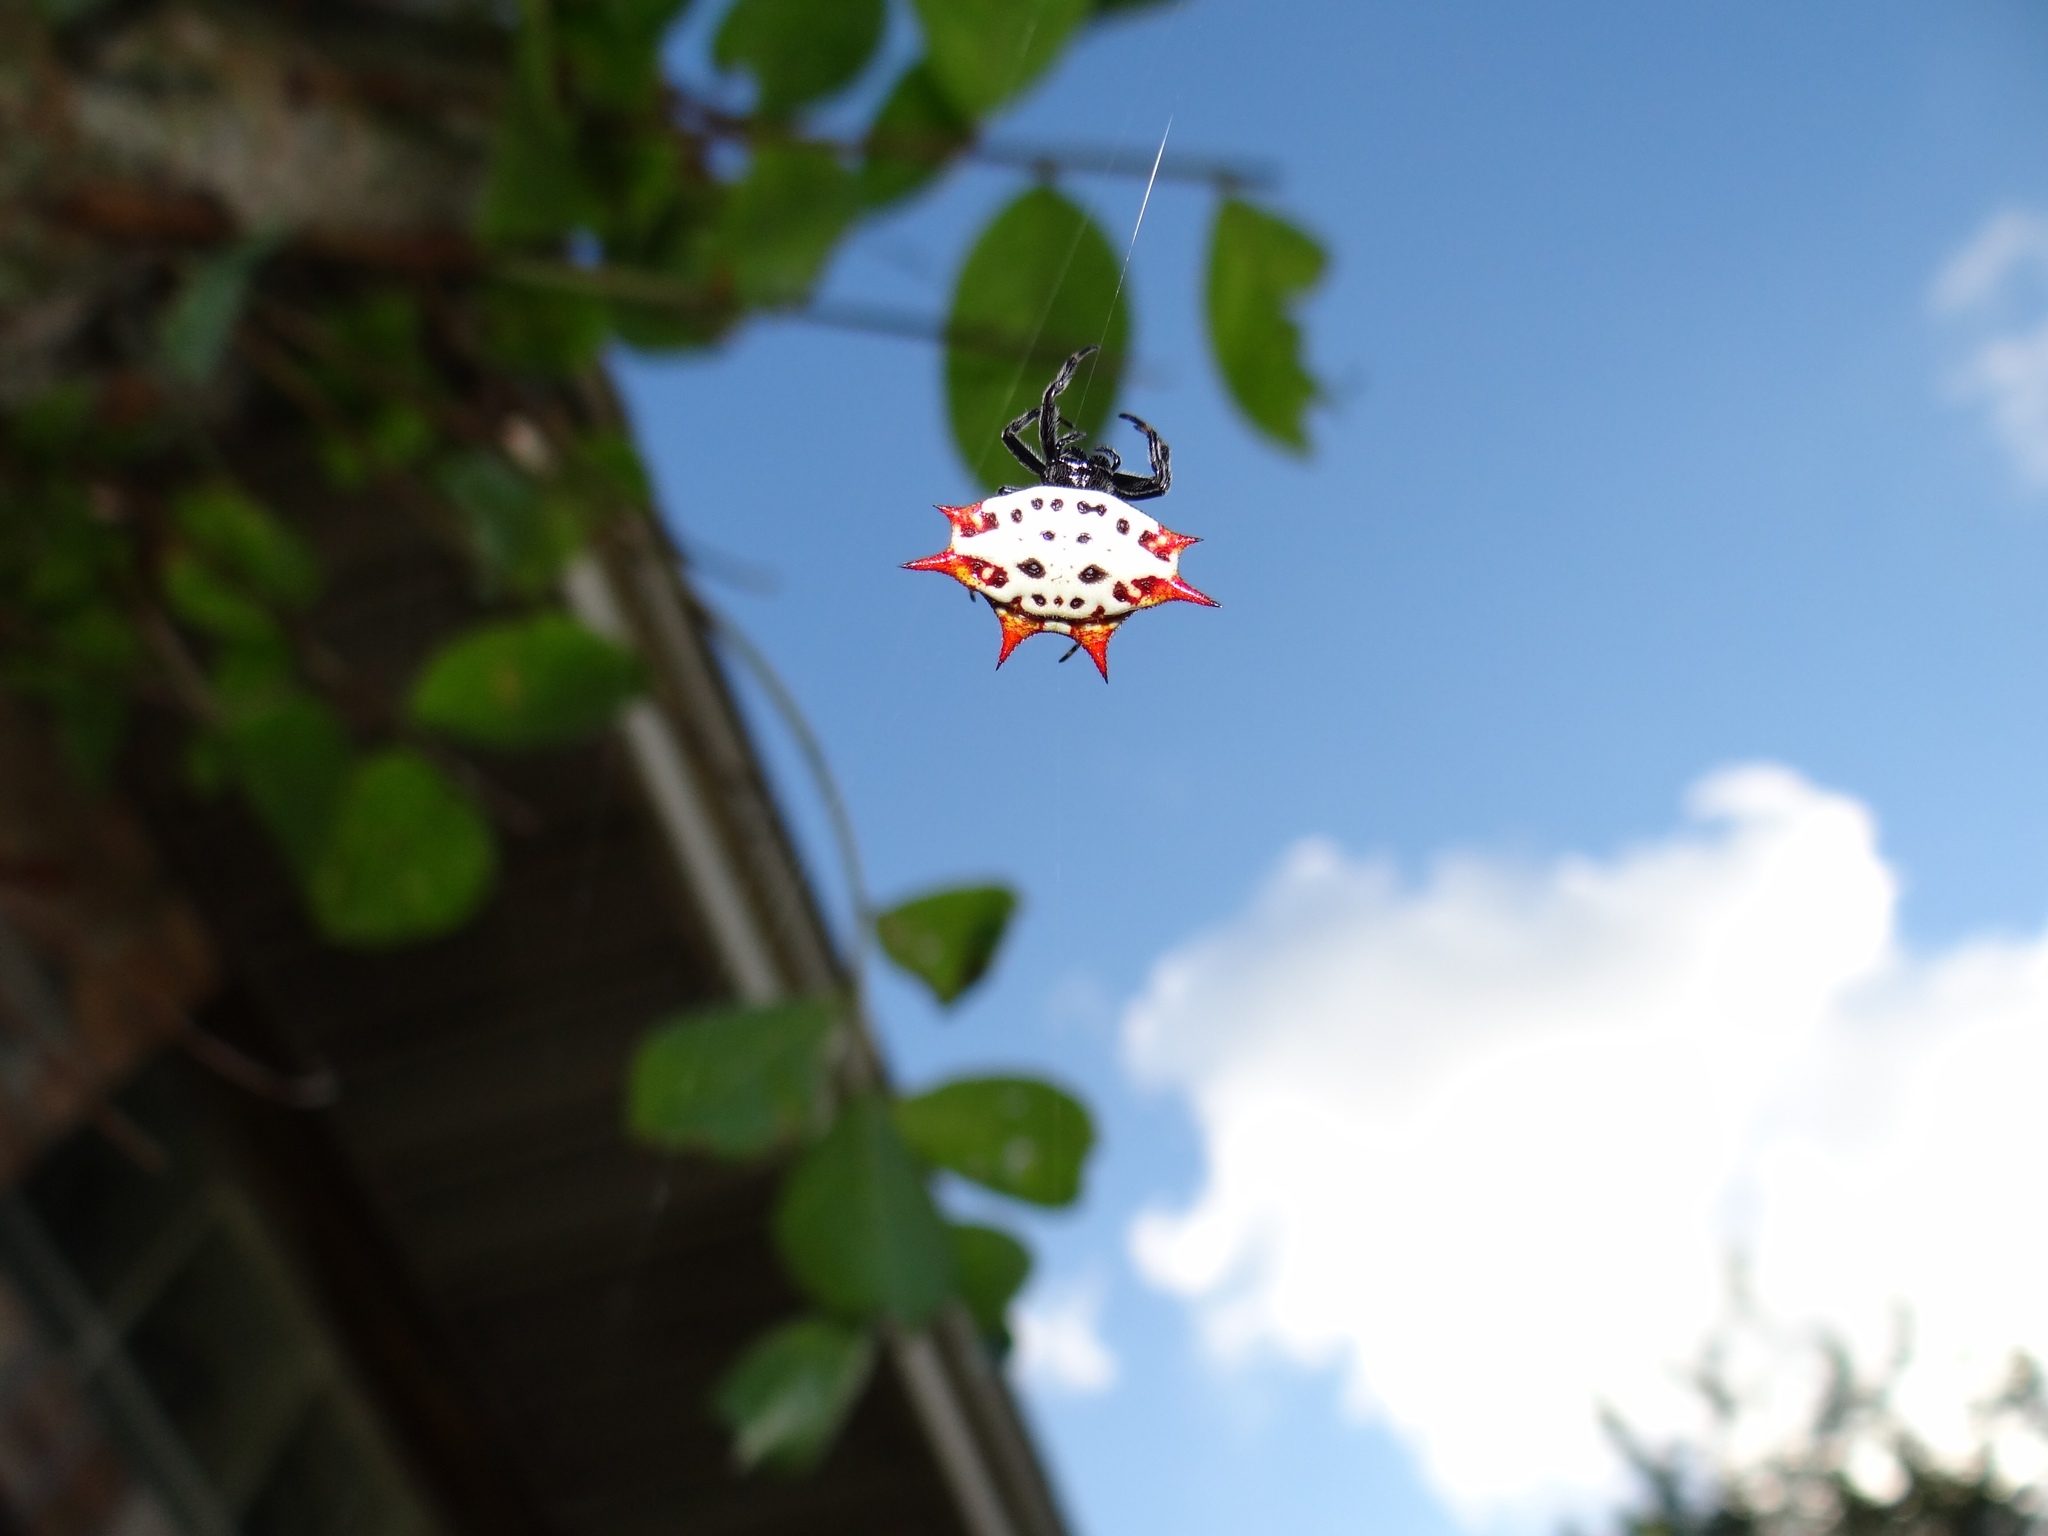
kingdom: Animalia
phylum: Arthropoda
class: Arachnida
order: Araneae
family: Araneidae
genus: Gasteracantha
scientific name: Gasteracantha cancriformis
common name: Orb weavers
